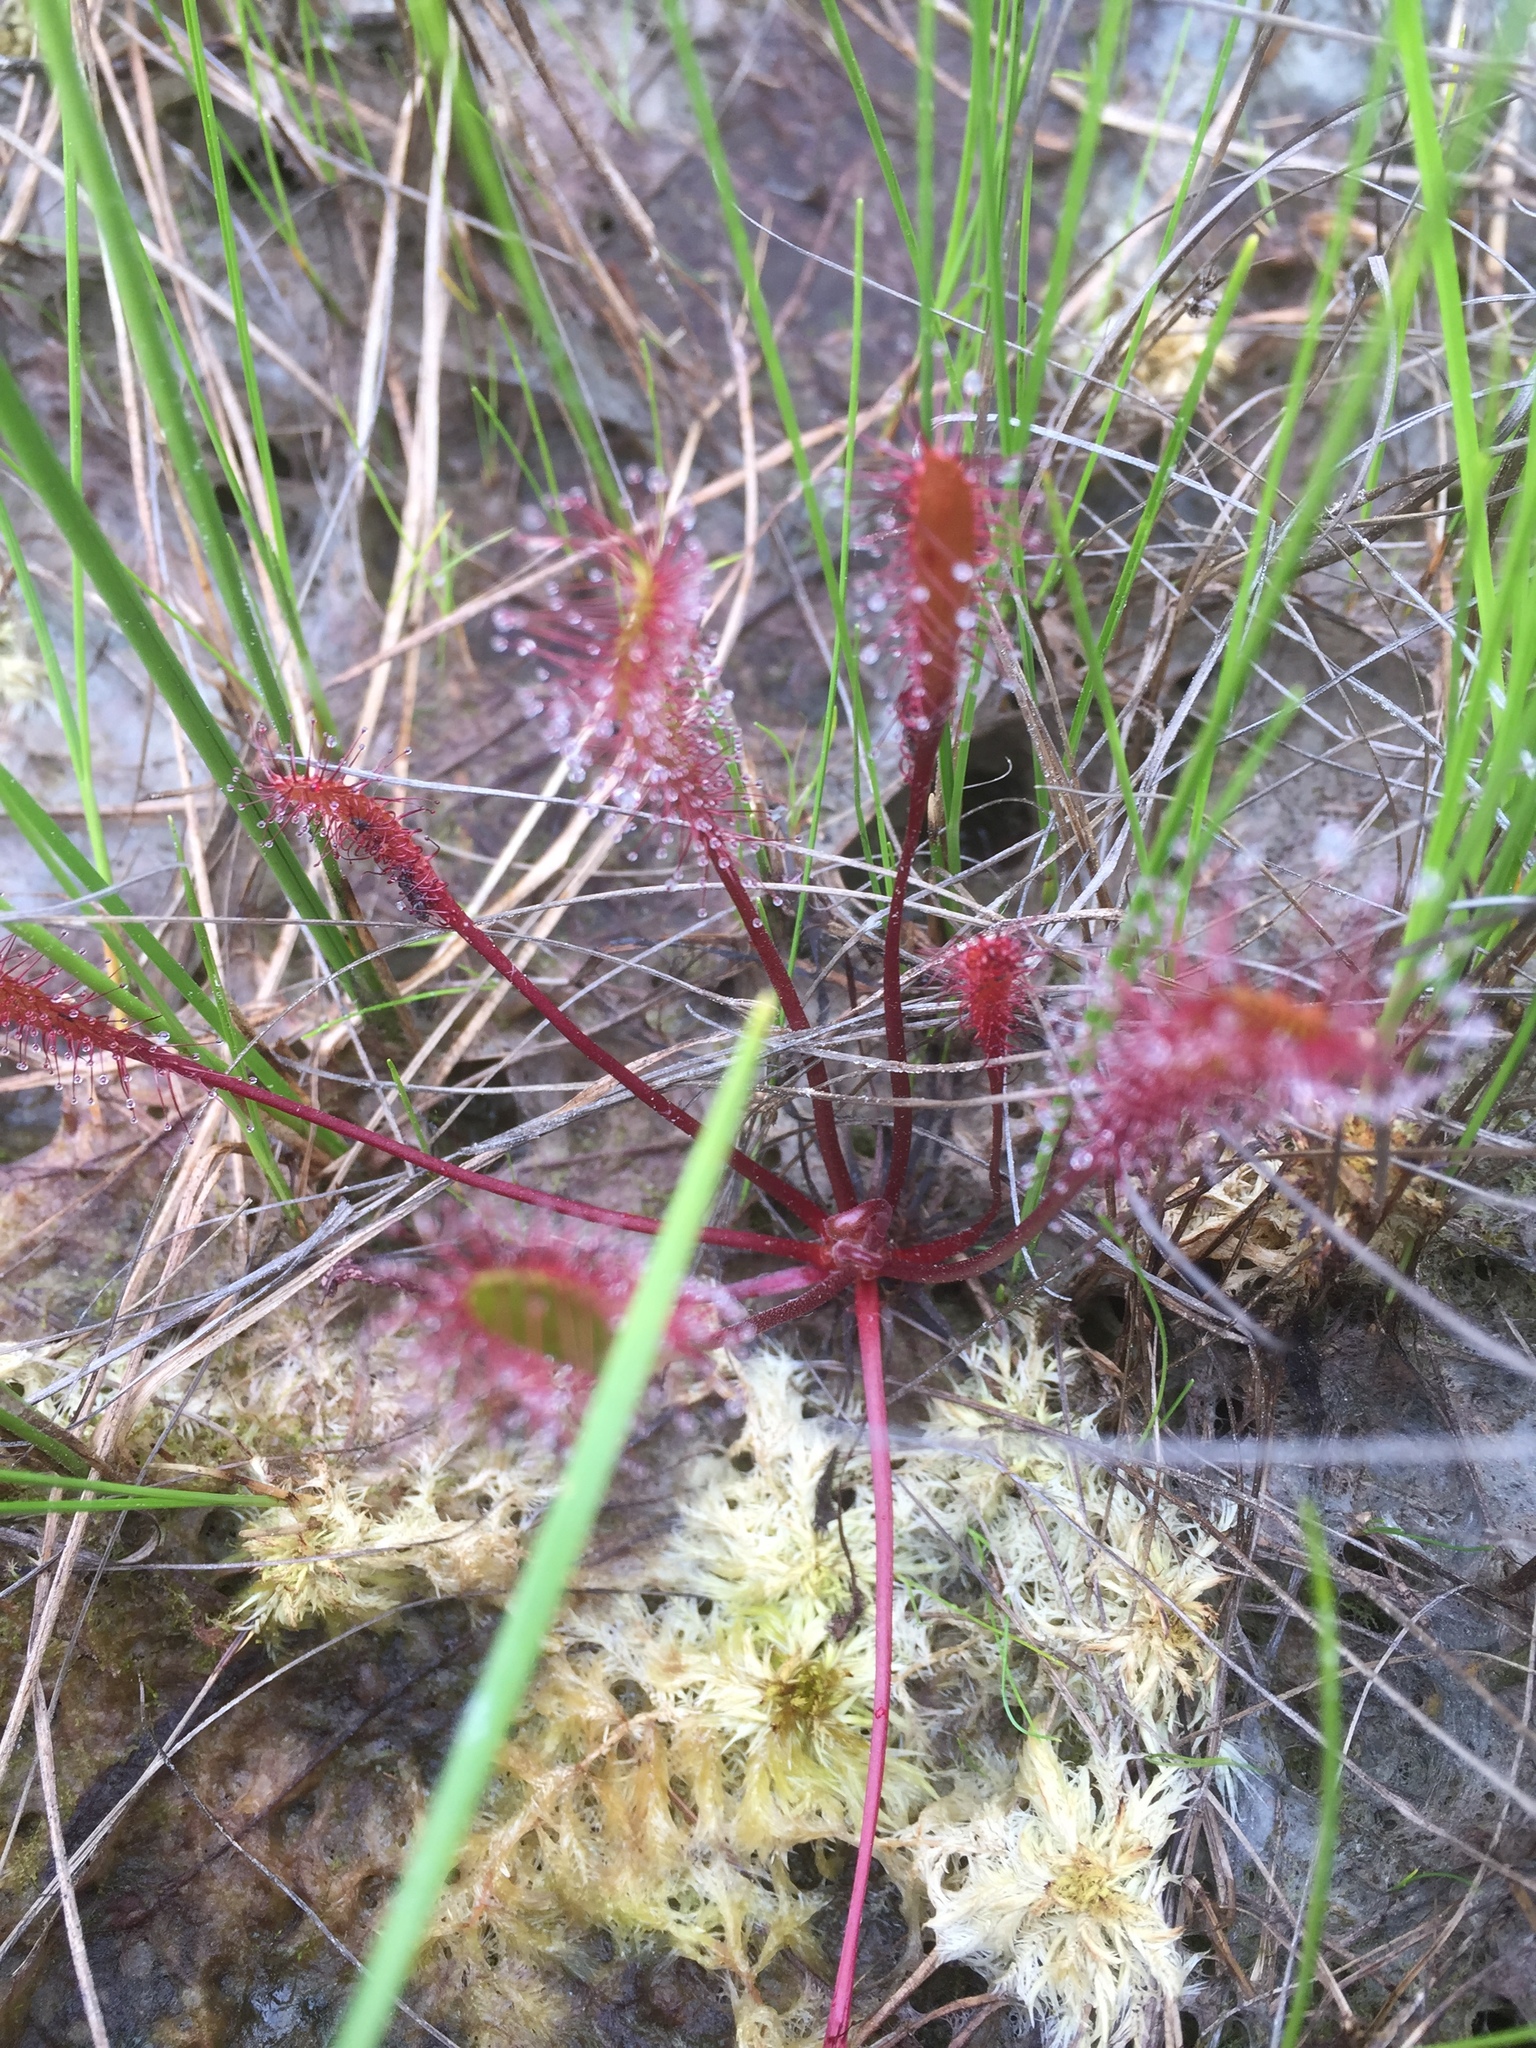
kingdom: Plantae
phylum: Tracheophyta
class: Magnoliopsida
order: Caryophyllales
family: Droseraceae
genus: Drosera
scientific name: Drosera anglica
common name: Great sundew
